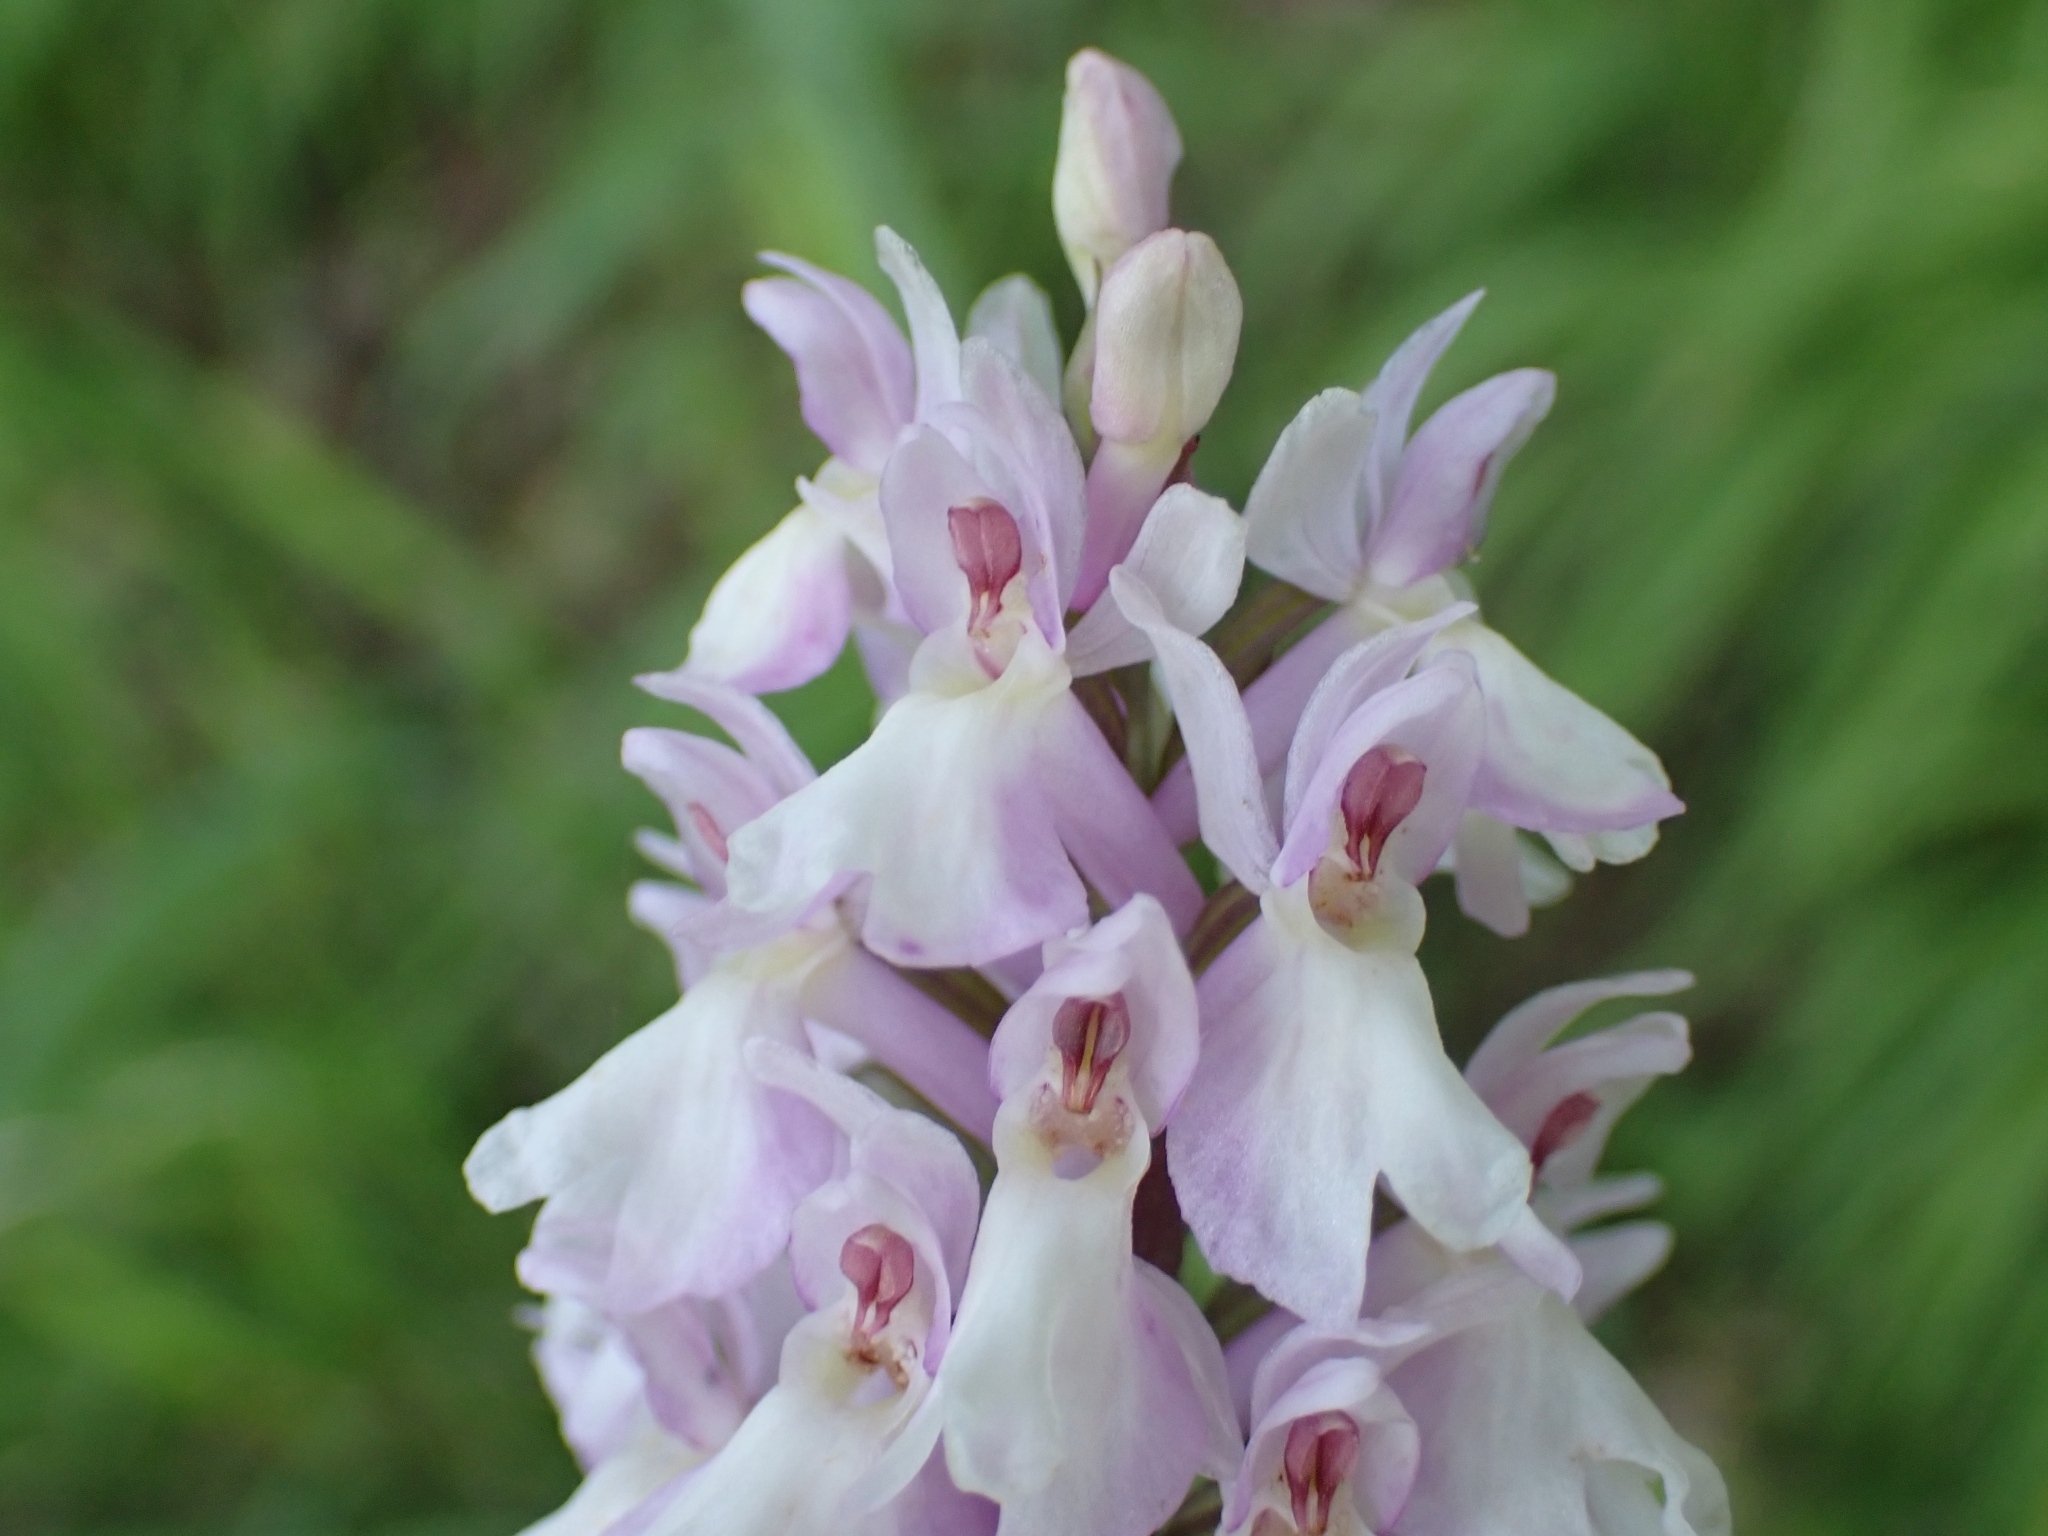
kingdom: Plantae
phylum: Tracheophyta
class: Liliopsida
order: Asparagales
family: Orchidaceae
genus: Dactylorhiza
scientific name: Dactylorhiza maculata
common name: Heath spotted-orchid
